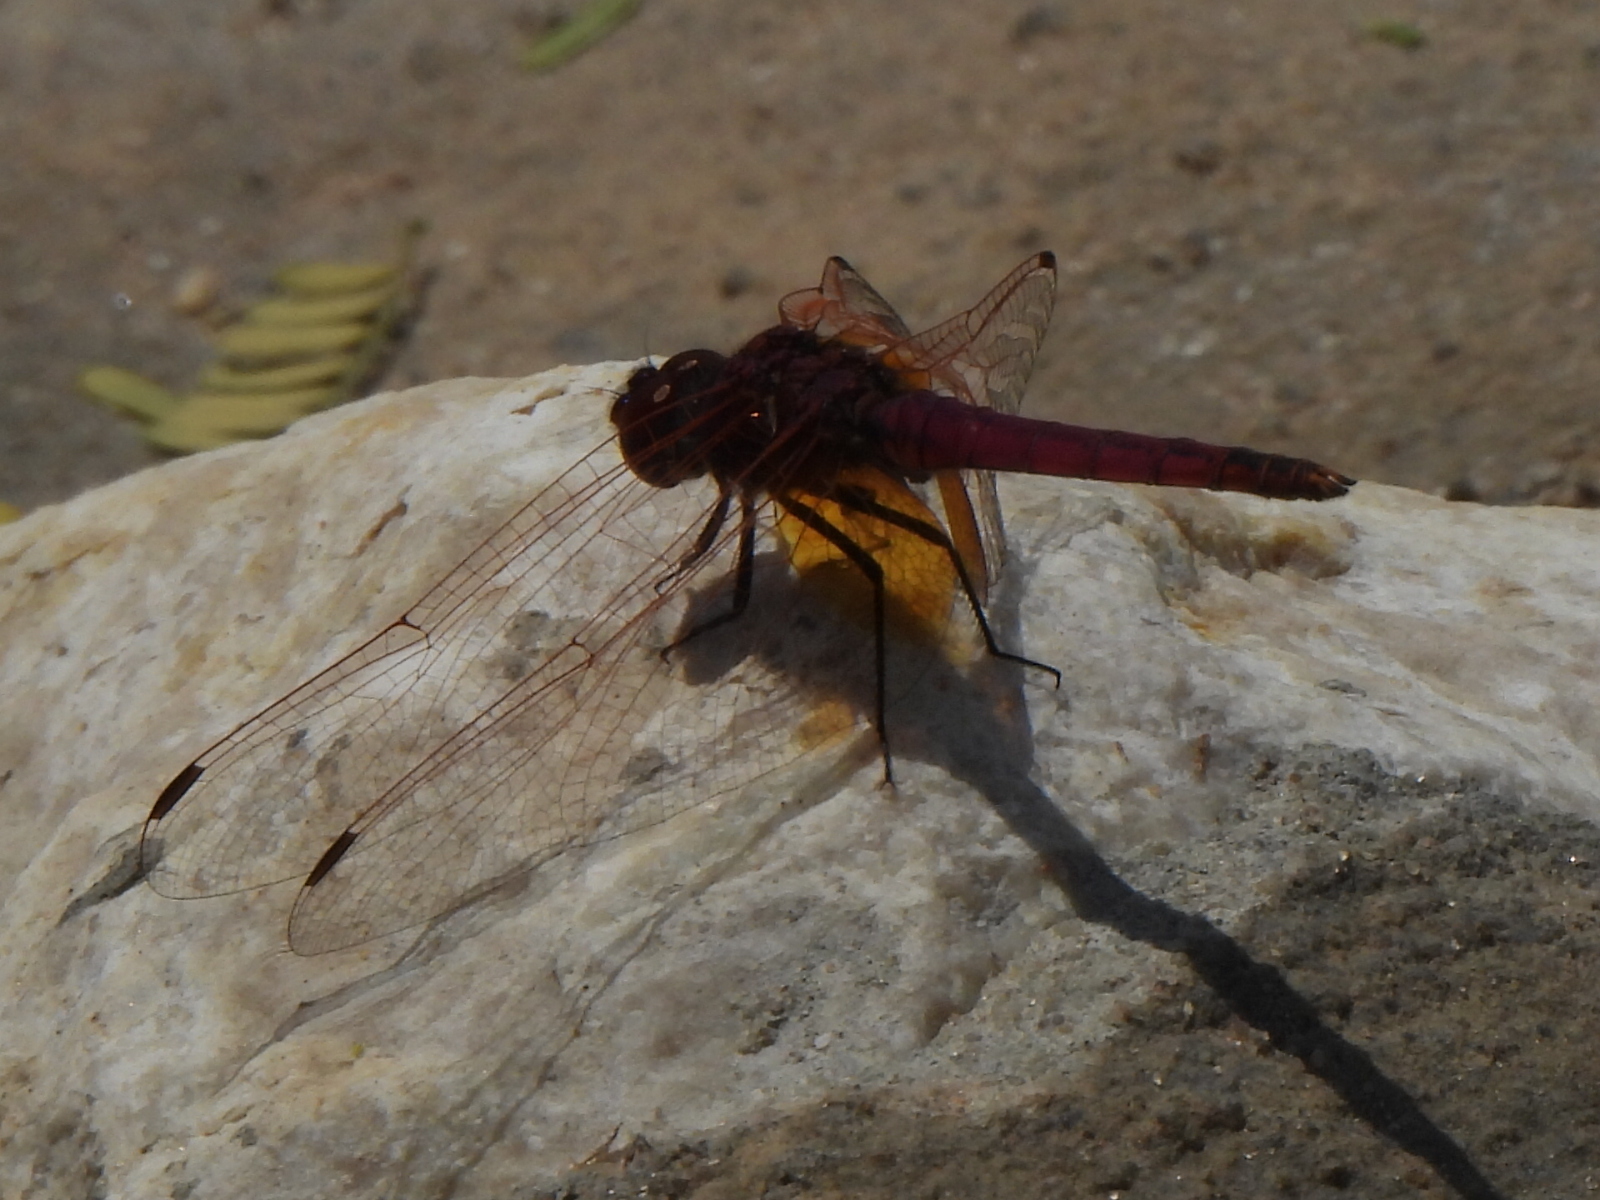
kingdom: Animalia
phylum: Arthropoda
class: Insecta
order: Odonata
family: Libellulidae
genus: Trithemis
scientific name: Trithemis annulata
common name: Violet dropwing
